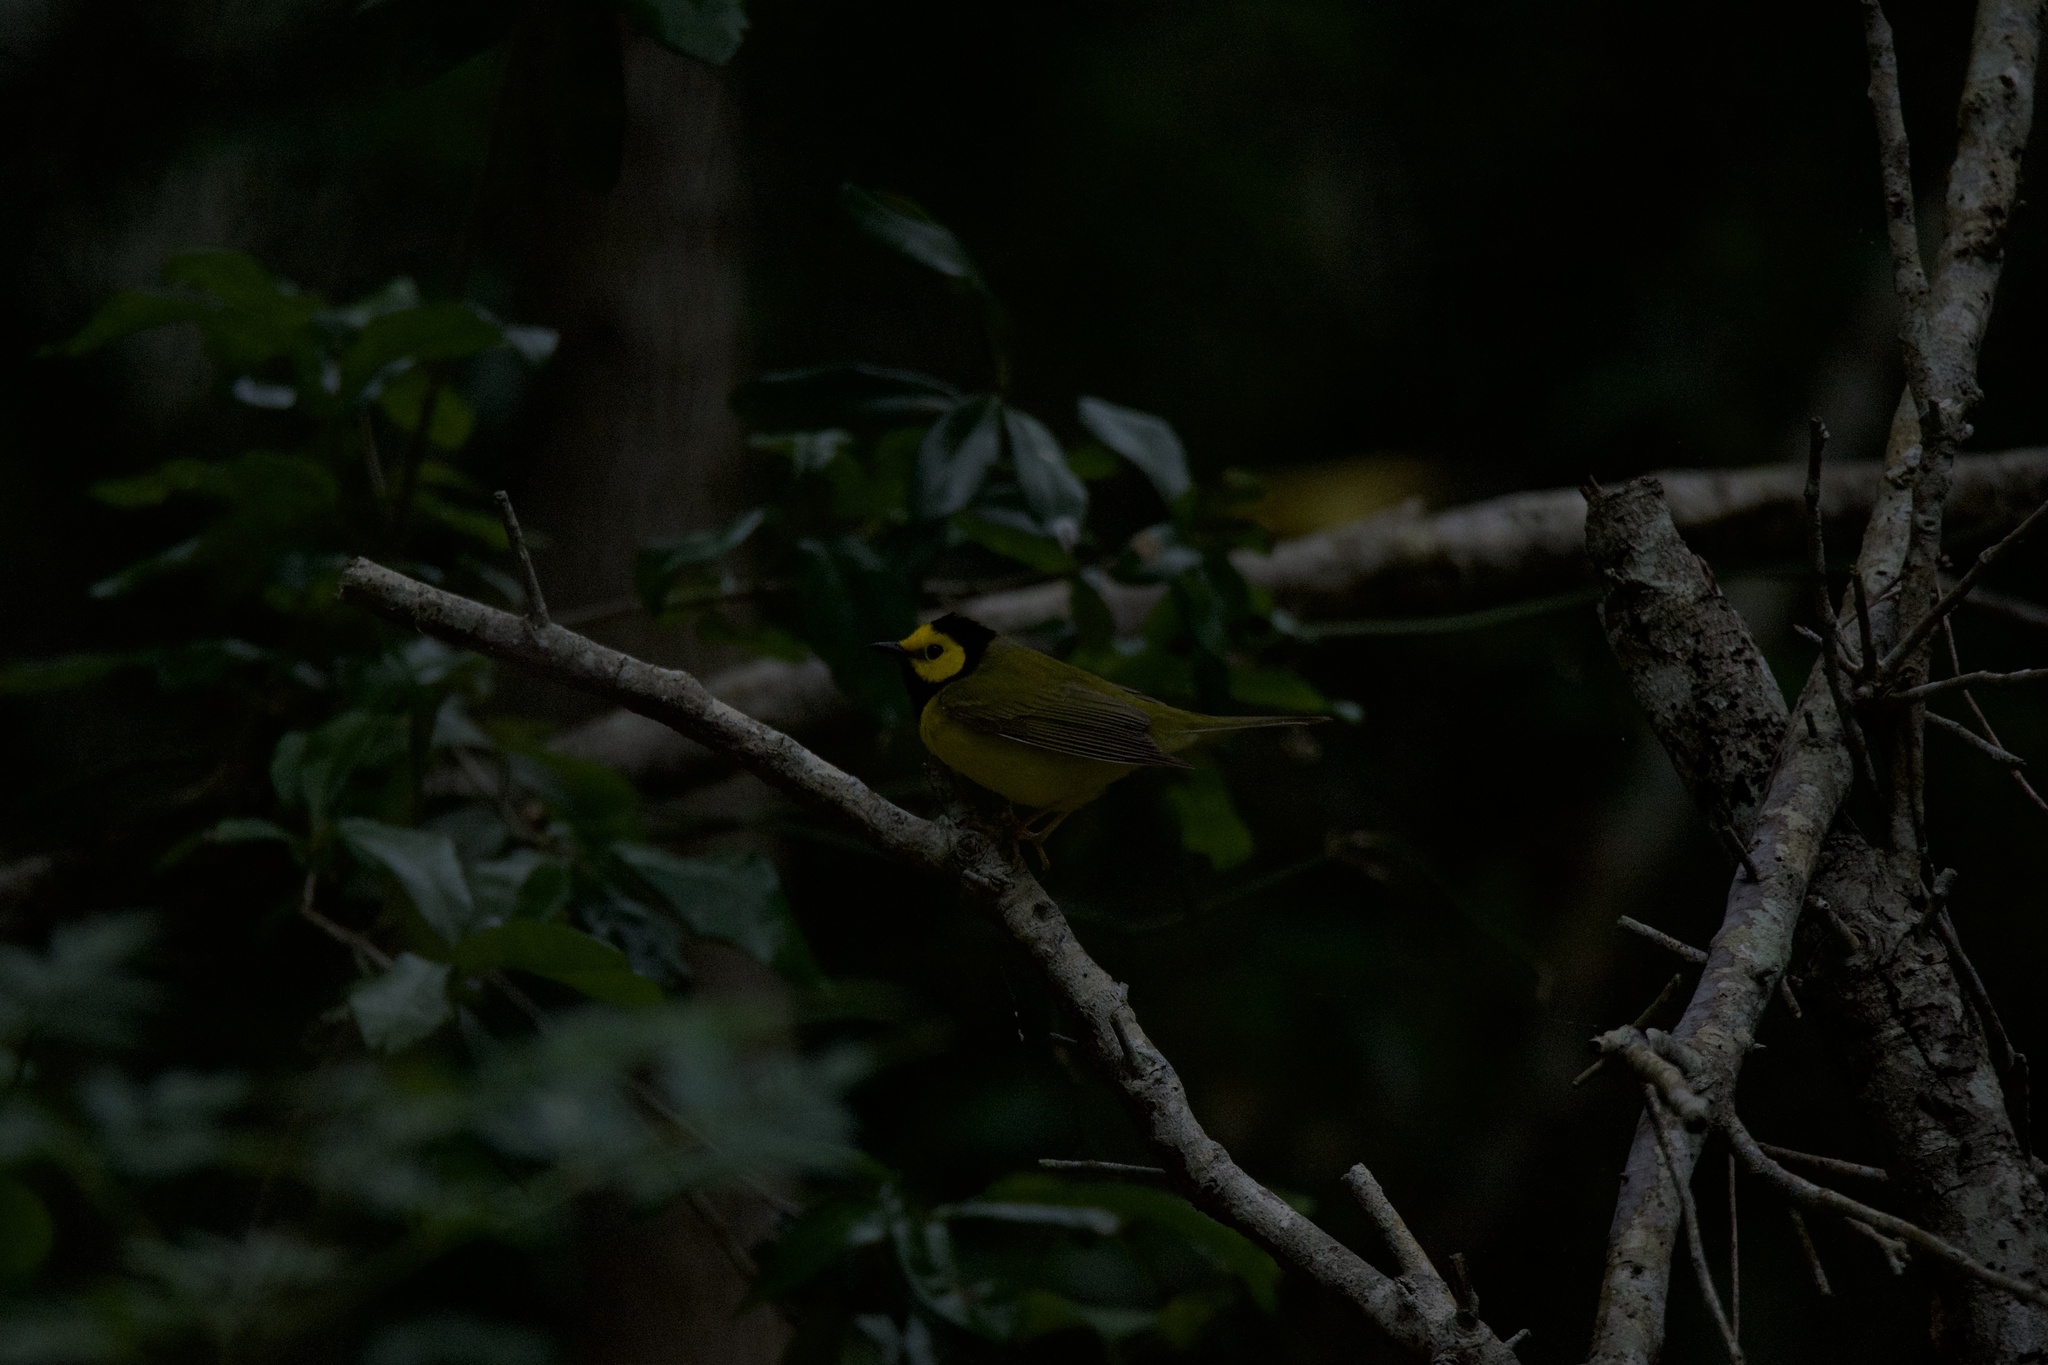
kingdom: Animalia
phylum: Chordata
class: Aves
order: Passeriformes
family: Parulidae
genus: Setophaga
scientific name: Setophaga citrina
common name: Hooded warbler
